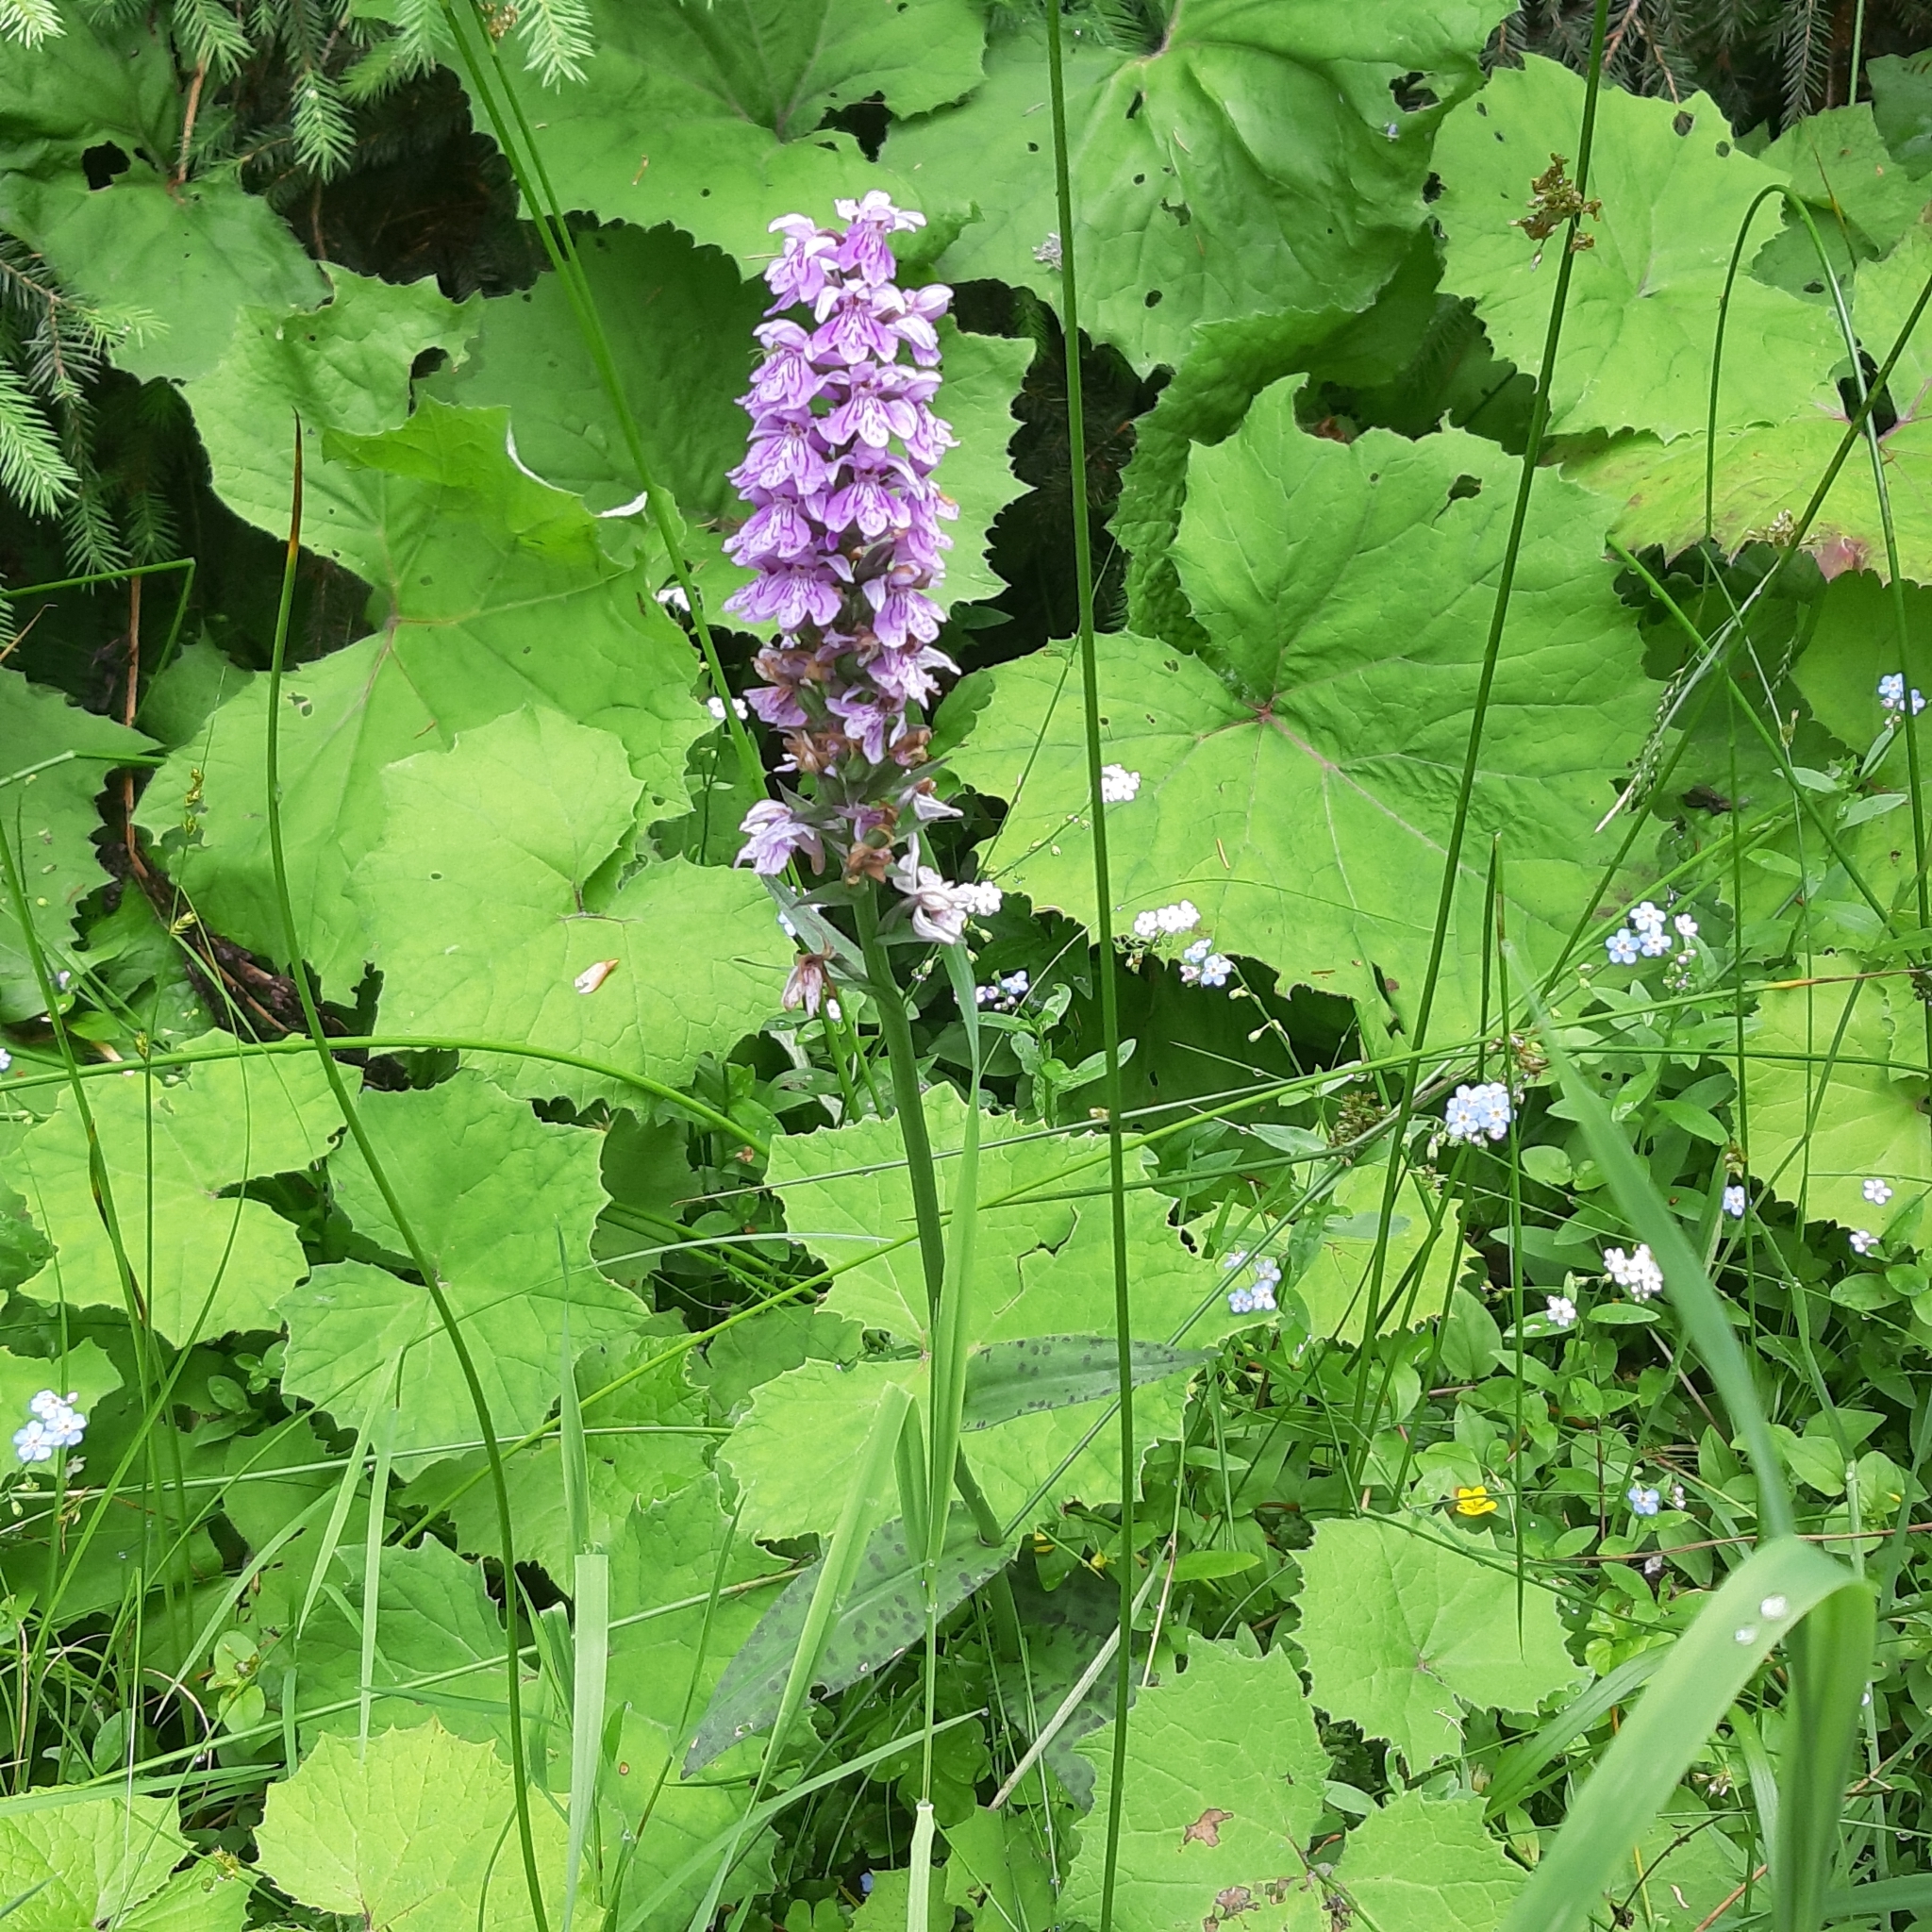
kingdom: Plantae
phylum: Tracheophyta
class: Liliopsida
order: Asparagales
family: Orchidaceae
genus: Dactylorhiza
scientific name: Dactylorhiza maculata
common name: Heath spotted-orchid
